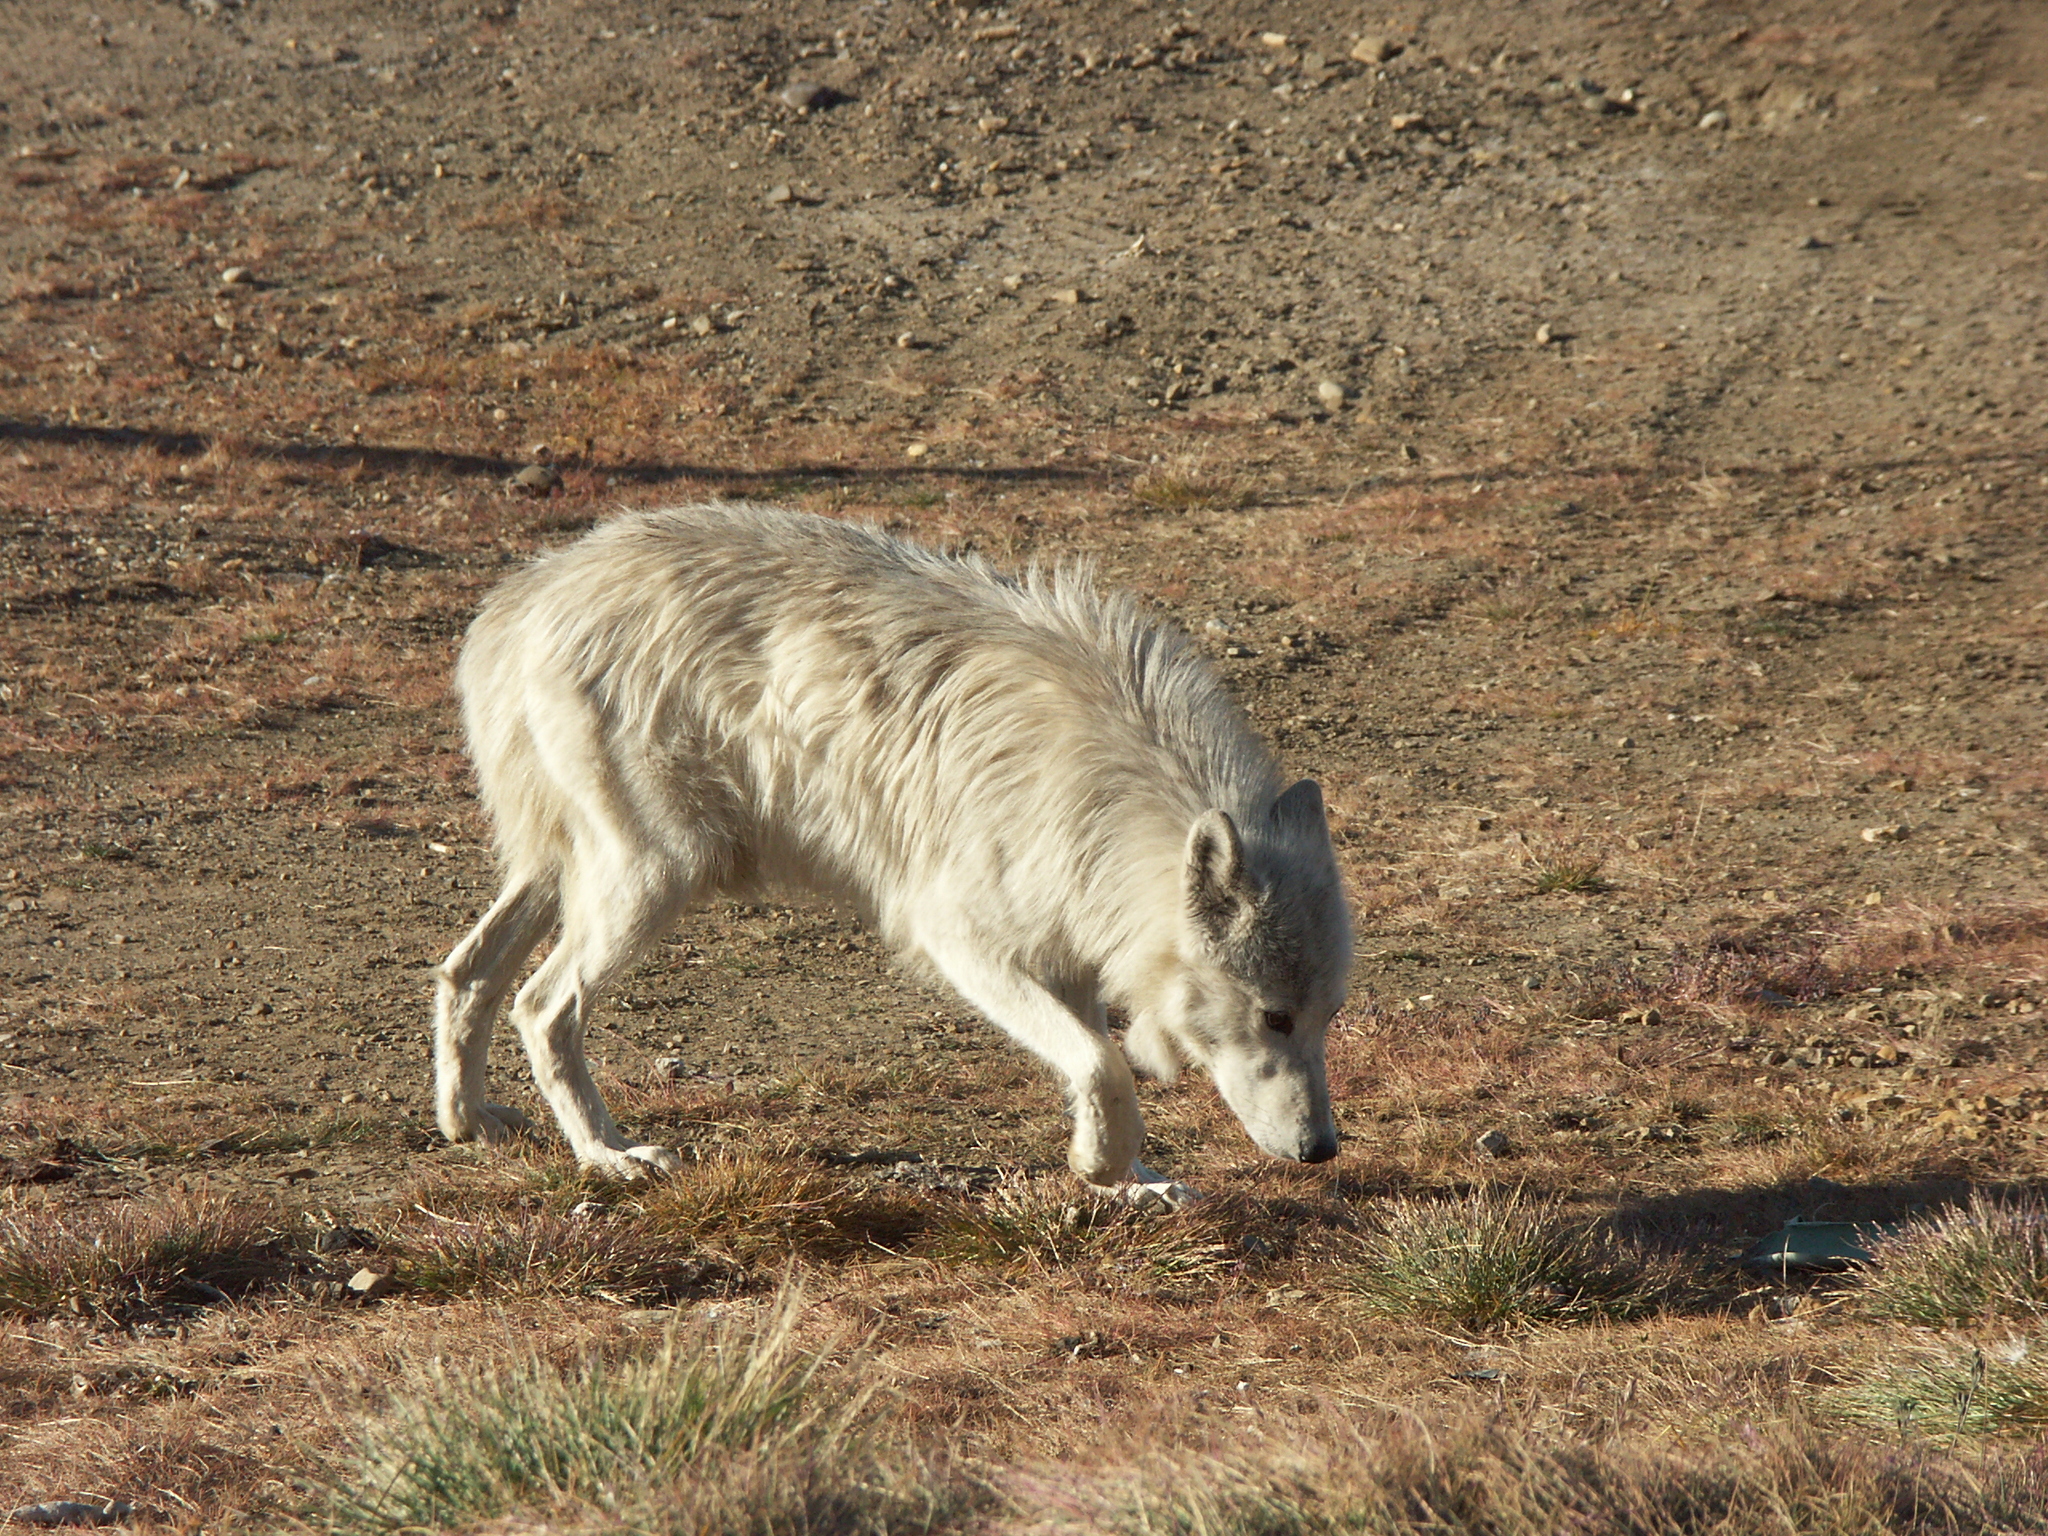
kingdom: Animalia
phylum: Chordata
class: Mammalia
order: Carnivora
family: Canidae
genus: Canis
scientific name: Canis lupus
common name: Gray wolf
